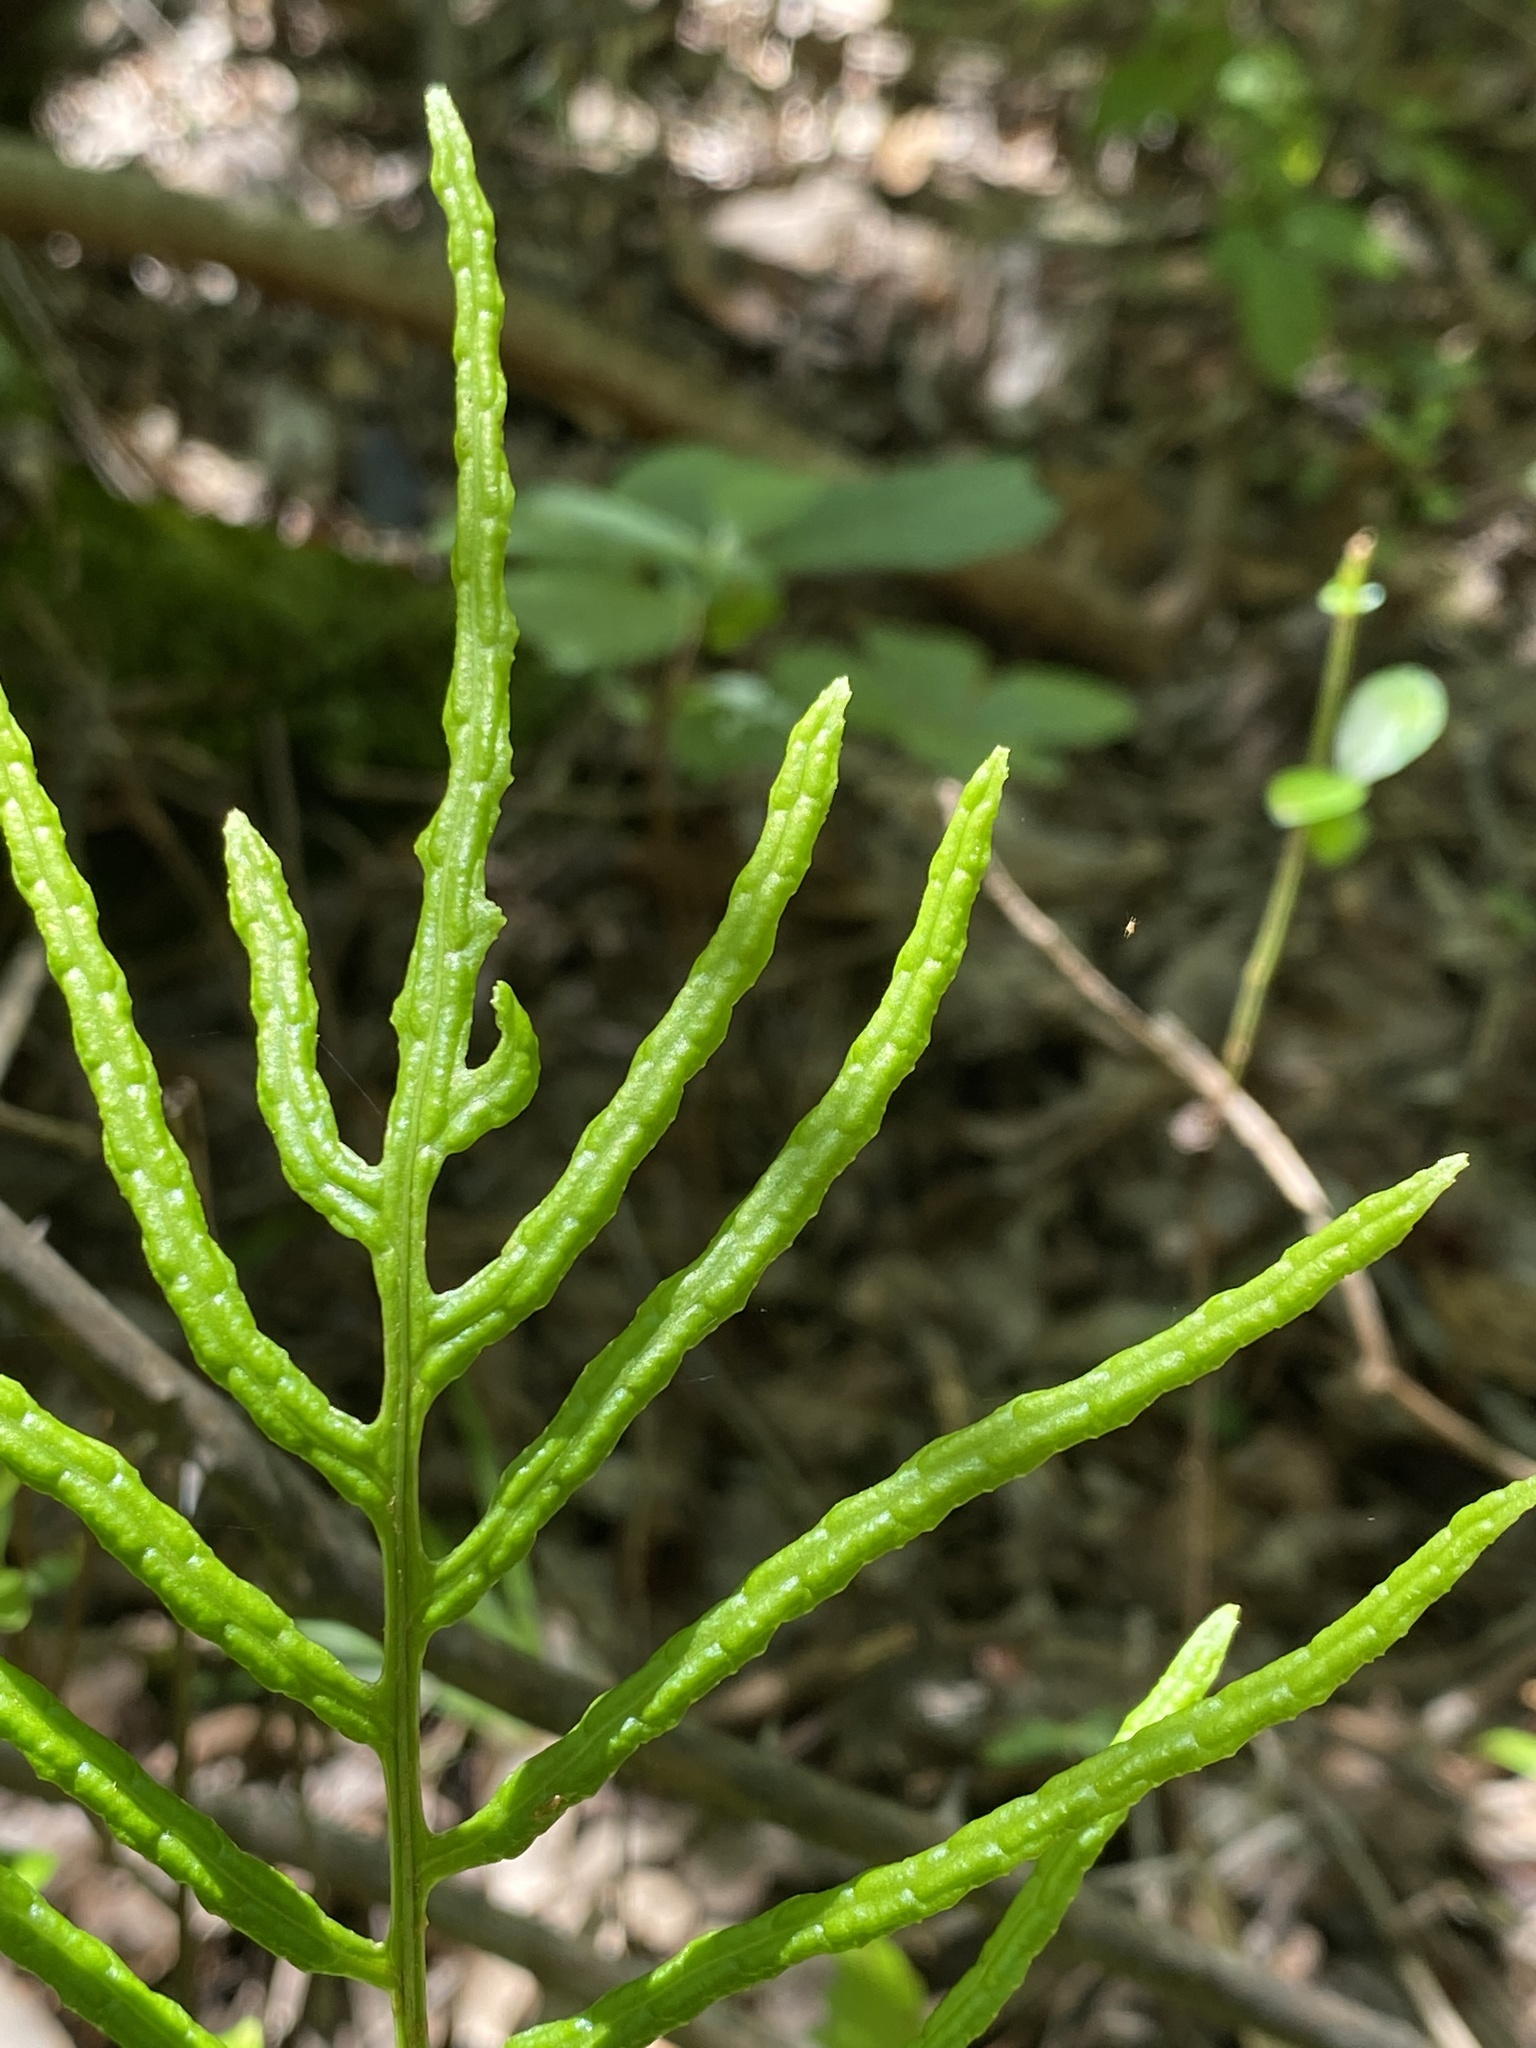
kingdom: Plantae
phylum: Tracheophyta
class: Polypodiopsida
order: Polypodiales
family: Blechnaceae
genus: Lorinseria
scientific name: Lorinseria areolata
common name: Dwarf chain fern
